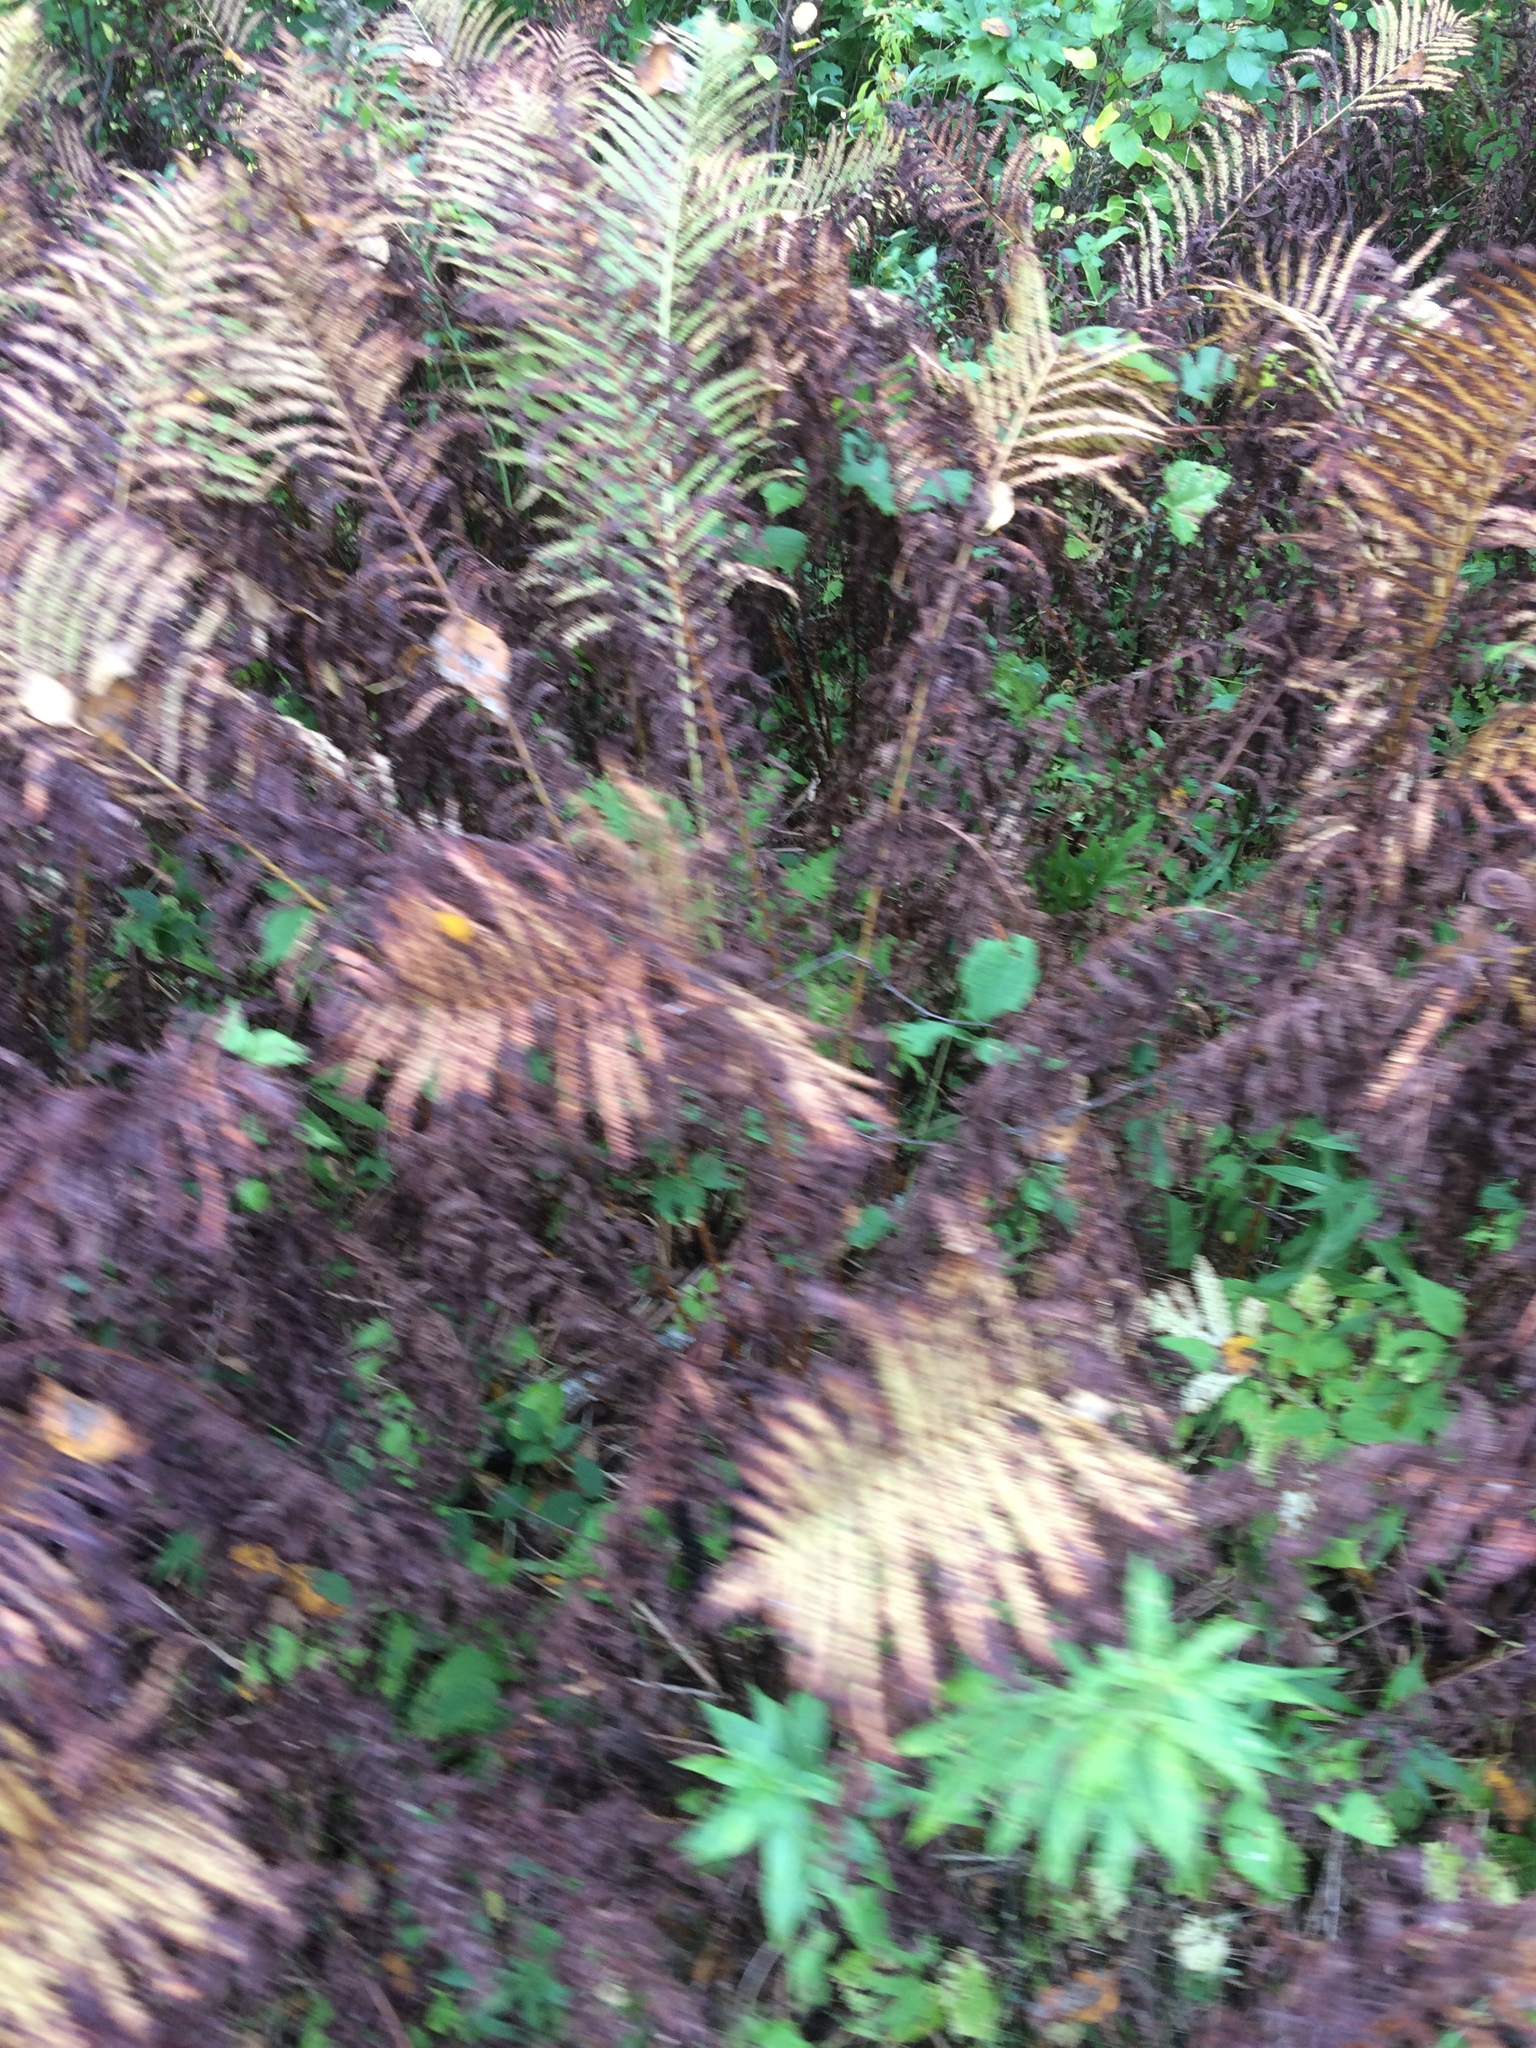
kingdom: Plantae
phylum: Tracheophyta
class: Polypodiopsida
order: Polypodiales
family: Onocleaceae
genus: Matteuccia
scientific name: Matteuccia struthiopteris
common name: Ostrich fern
